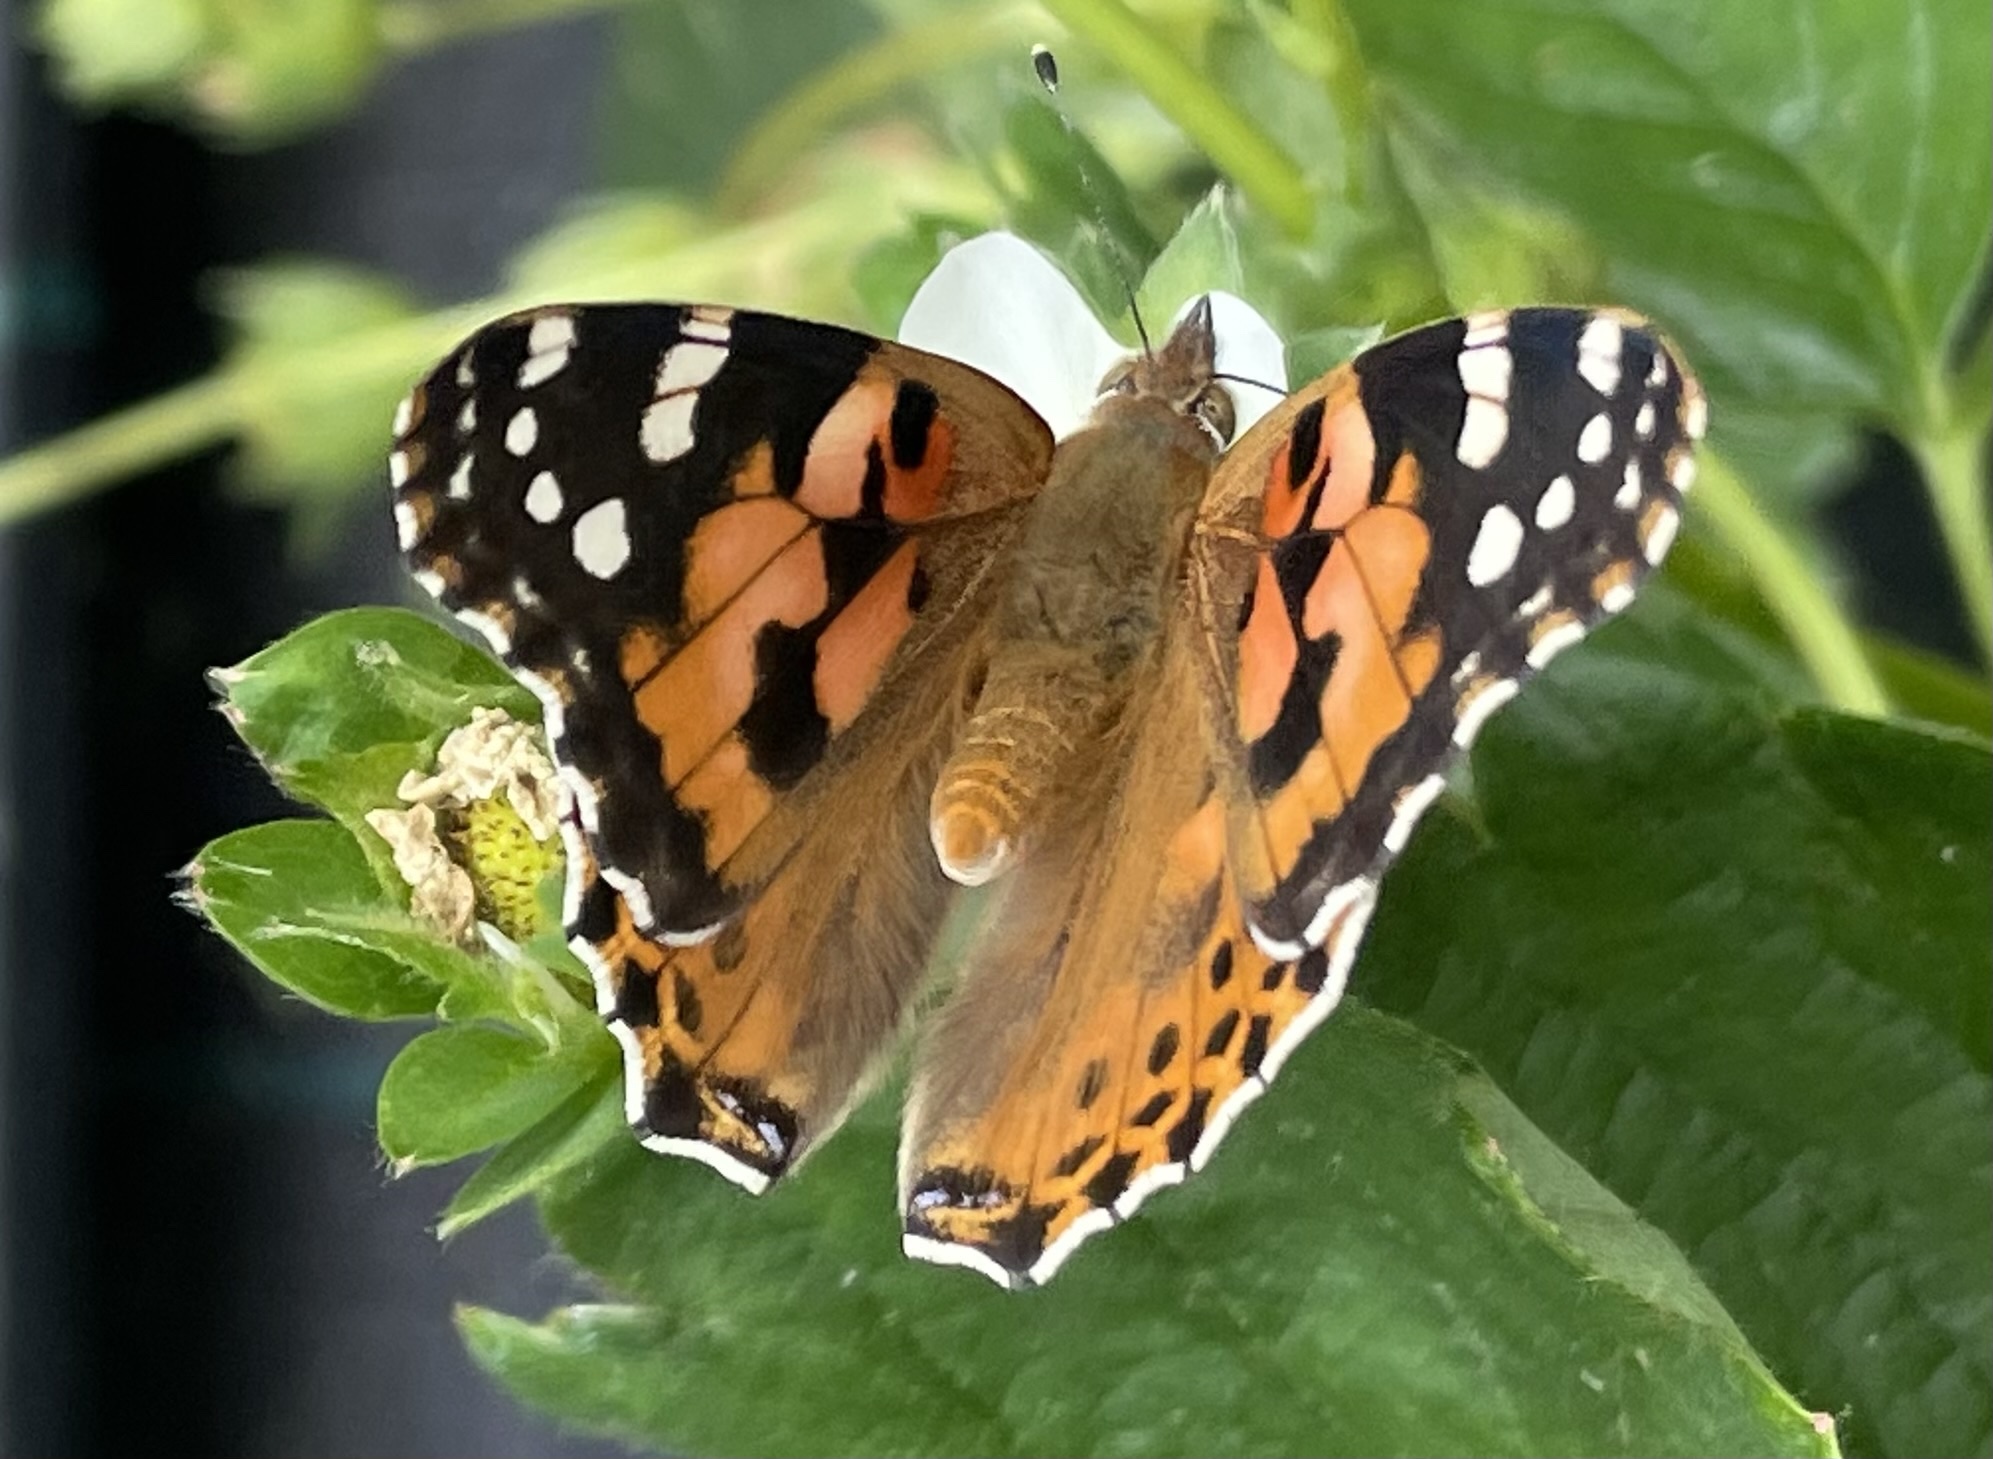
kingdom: Animalia
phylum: Arthropoda
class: Insecta
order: Lepidoptera
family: Nymphalidae
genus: Vanessa
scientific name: Vanessa cardui
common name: Painted lady
